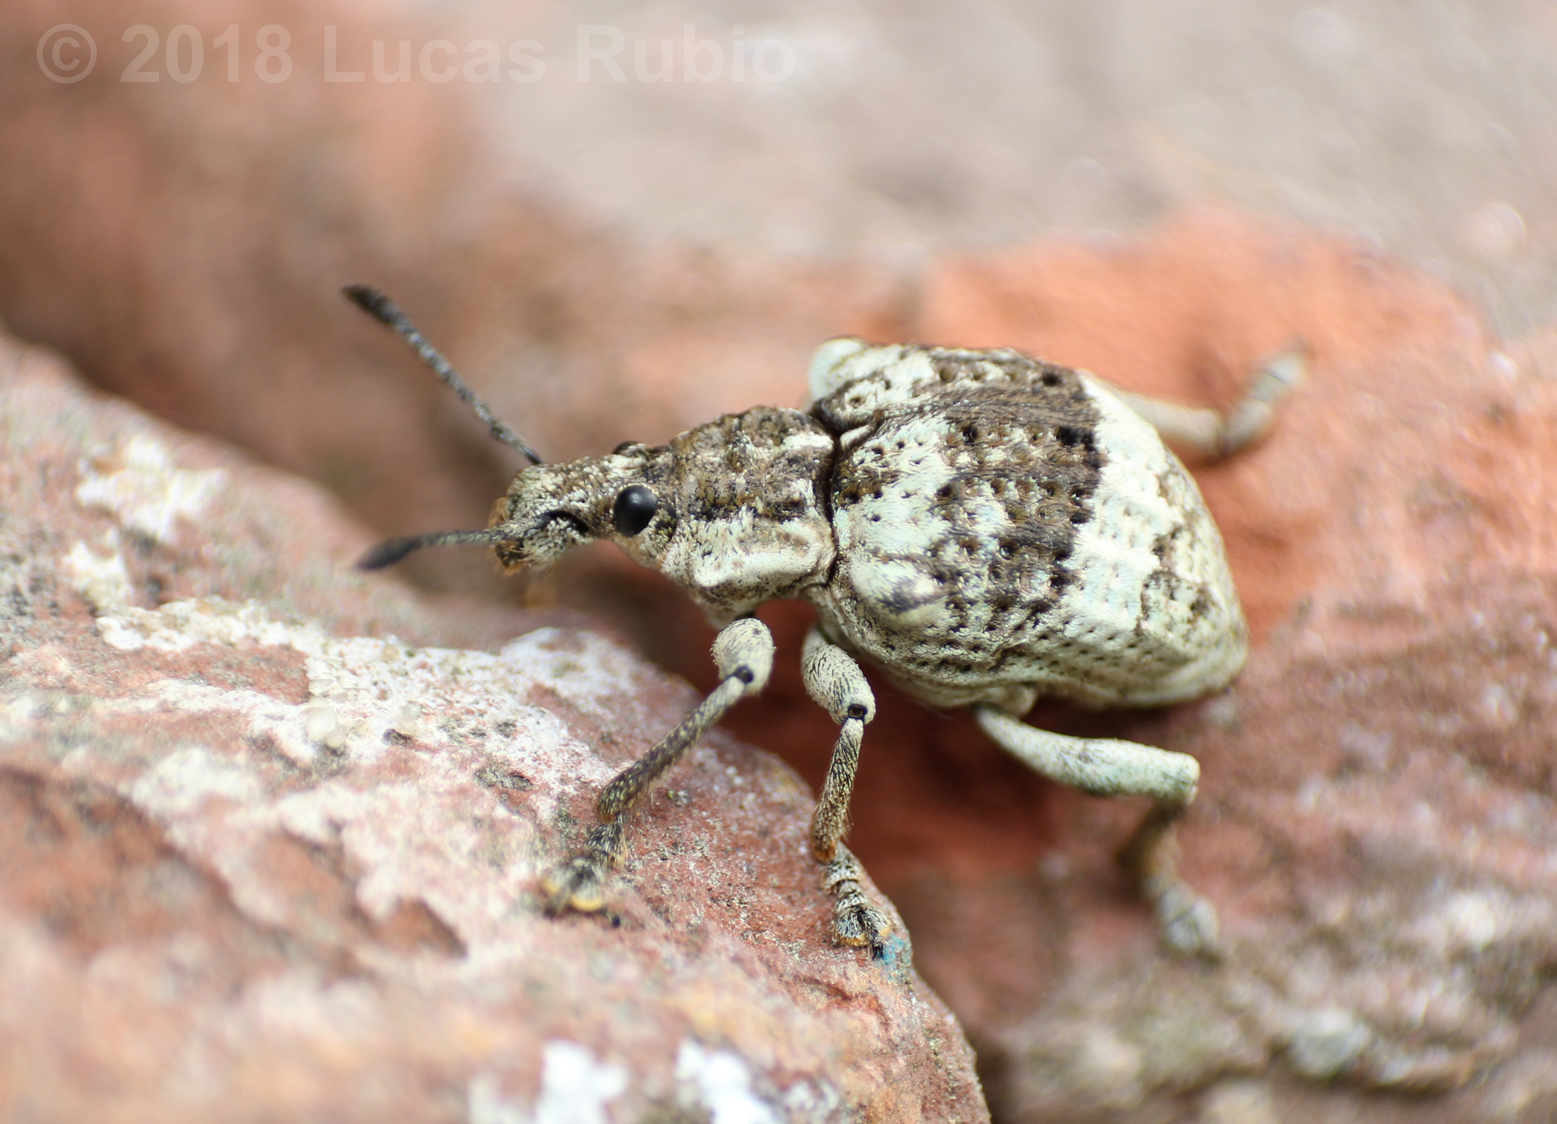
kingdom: Animalia
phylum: Arthropoda
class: Insecta
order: Coleoptera
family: Curculionidae
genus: Polyteles
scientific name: Polyteles guerini
